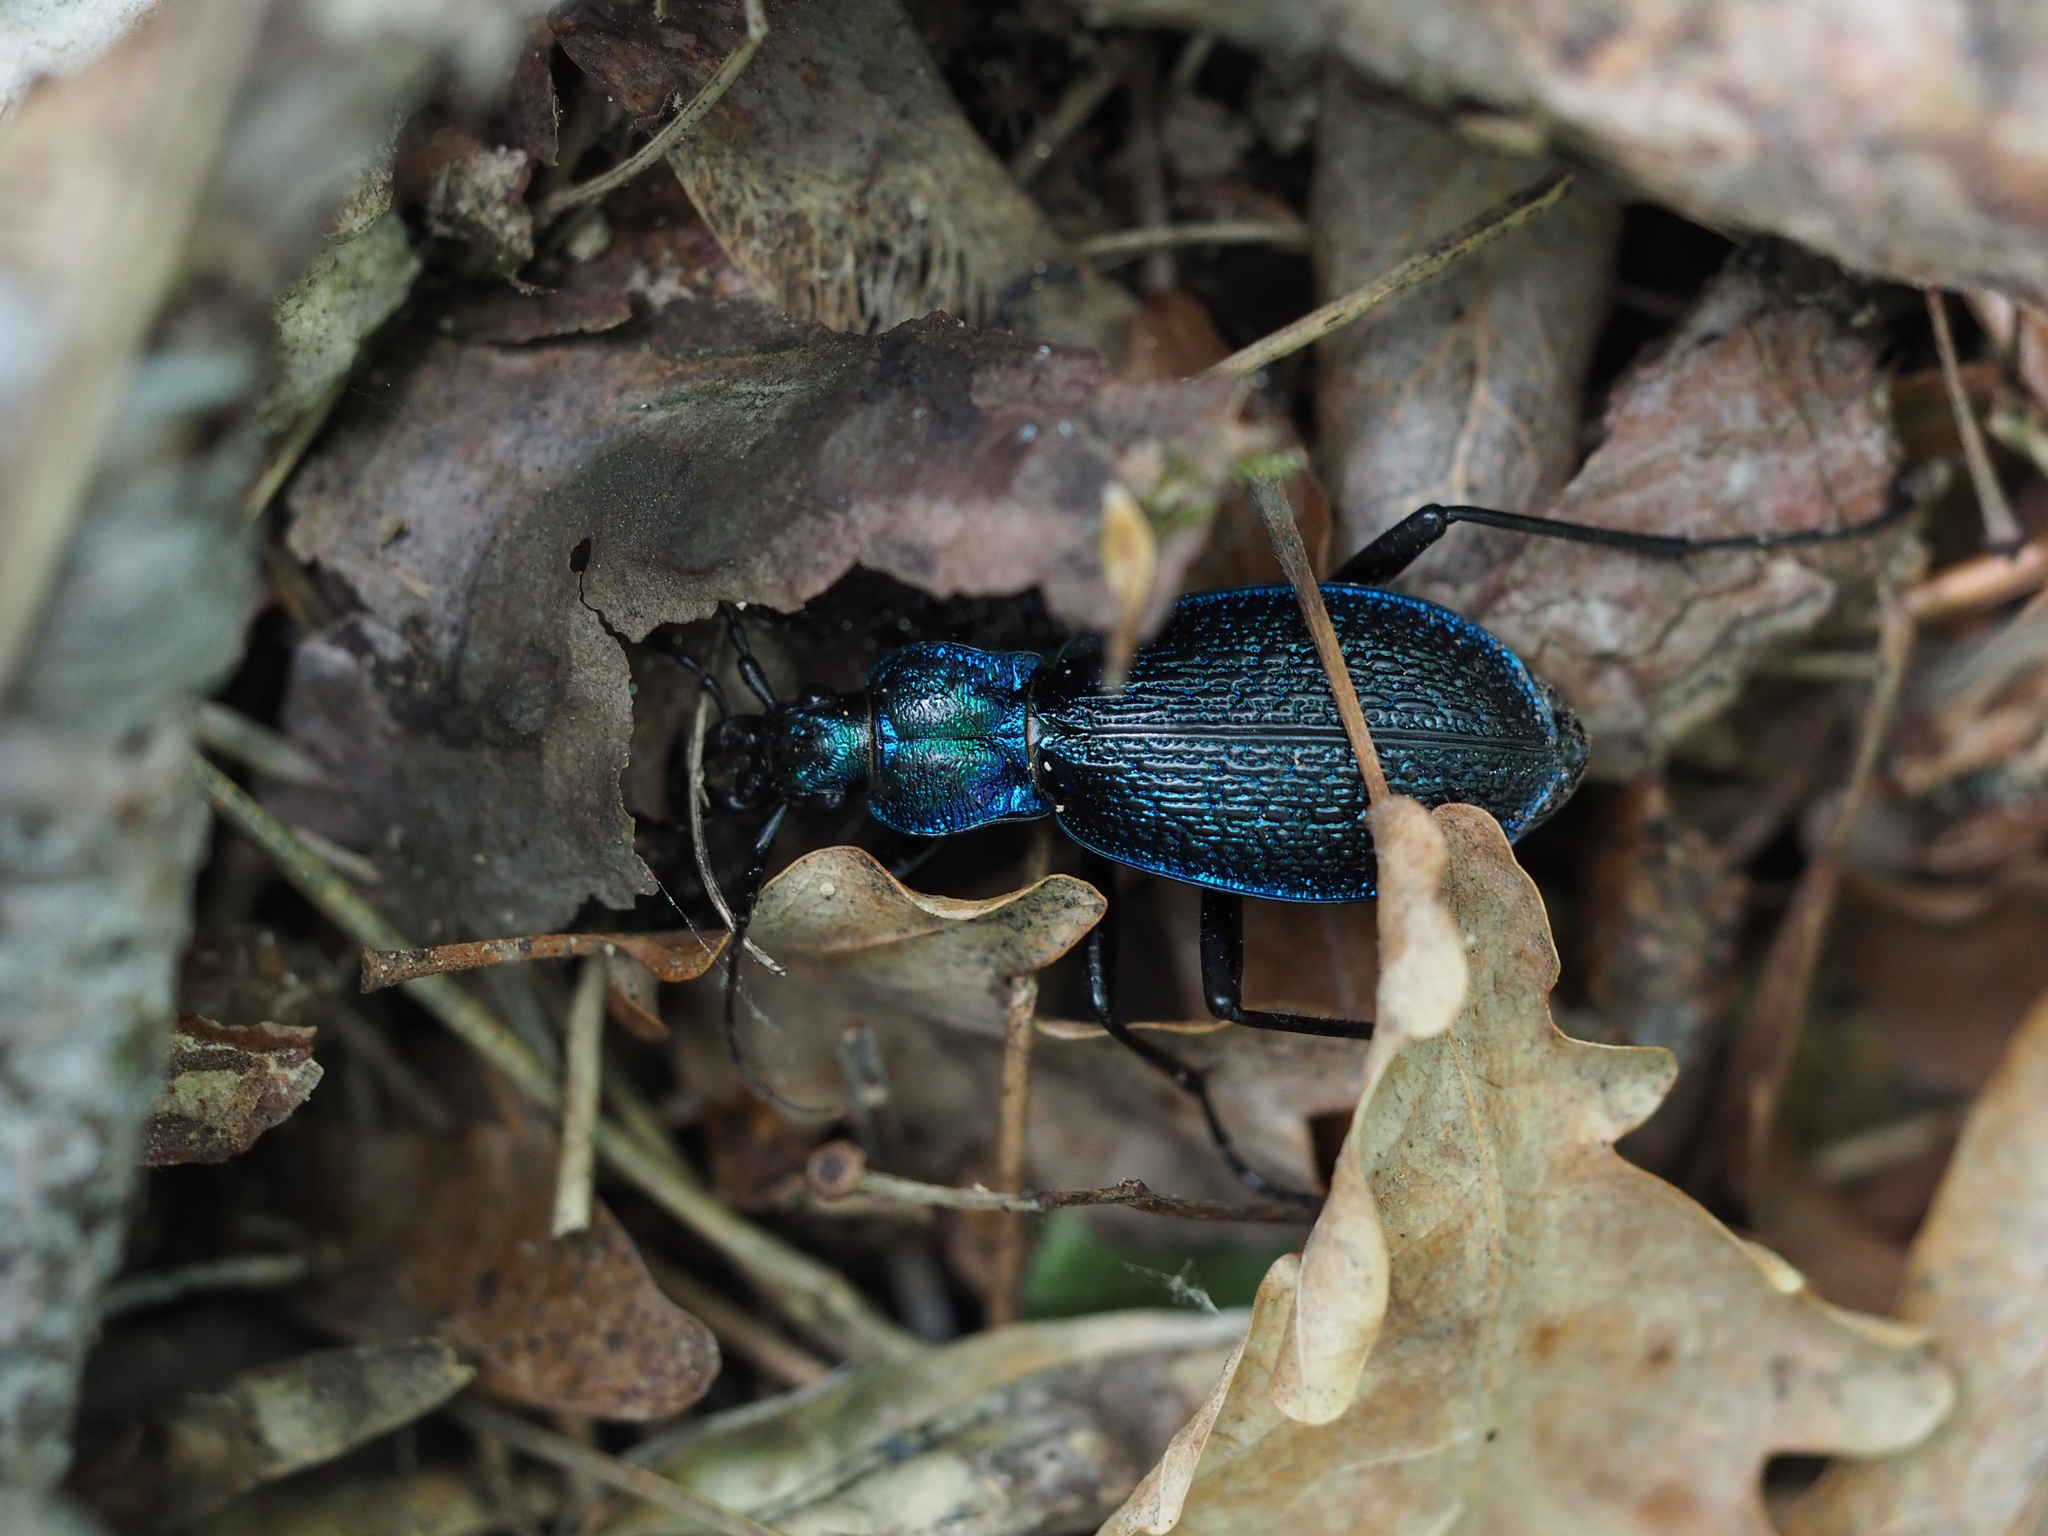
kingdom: Animalia
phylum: Arthropoda
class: Insecta
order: Coleoptera
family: Carabidae
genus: Carabus
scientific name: Carabus intricatus
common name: Blue ground beetle
